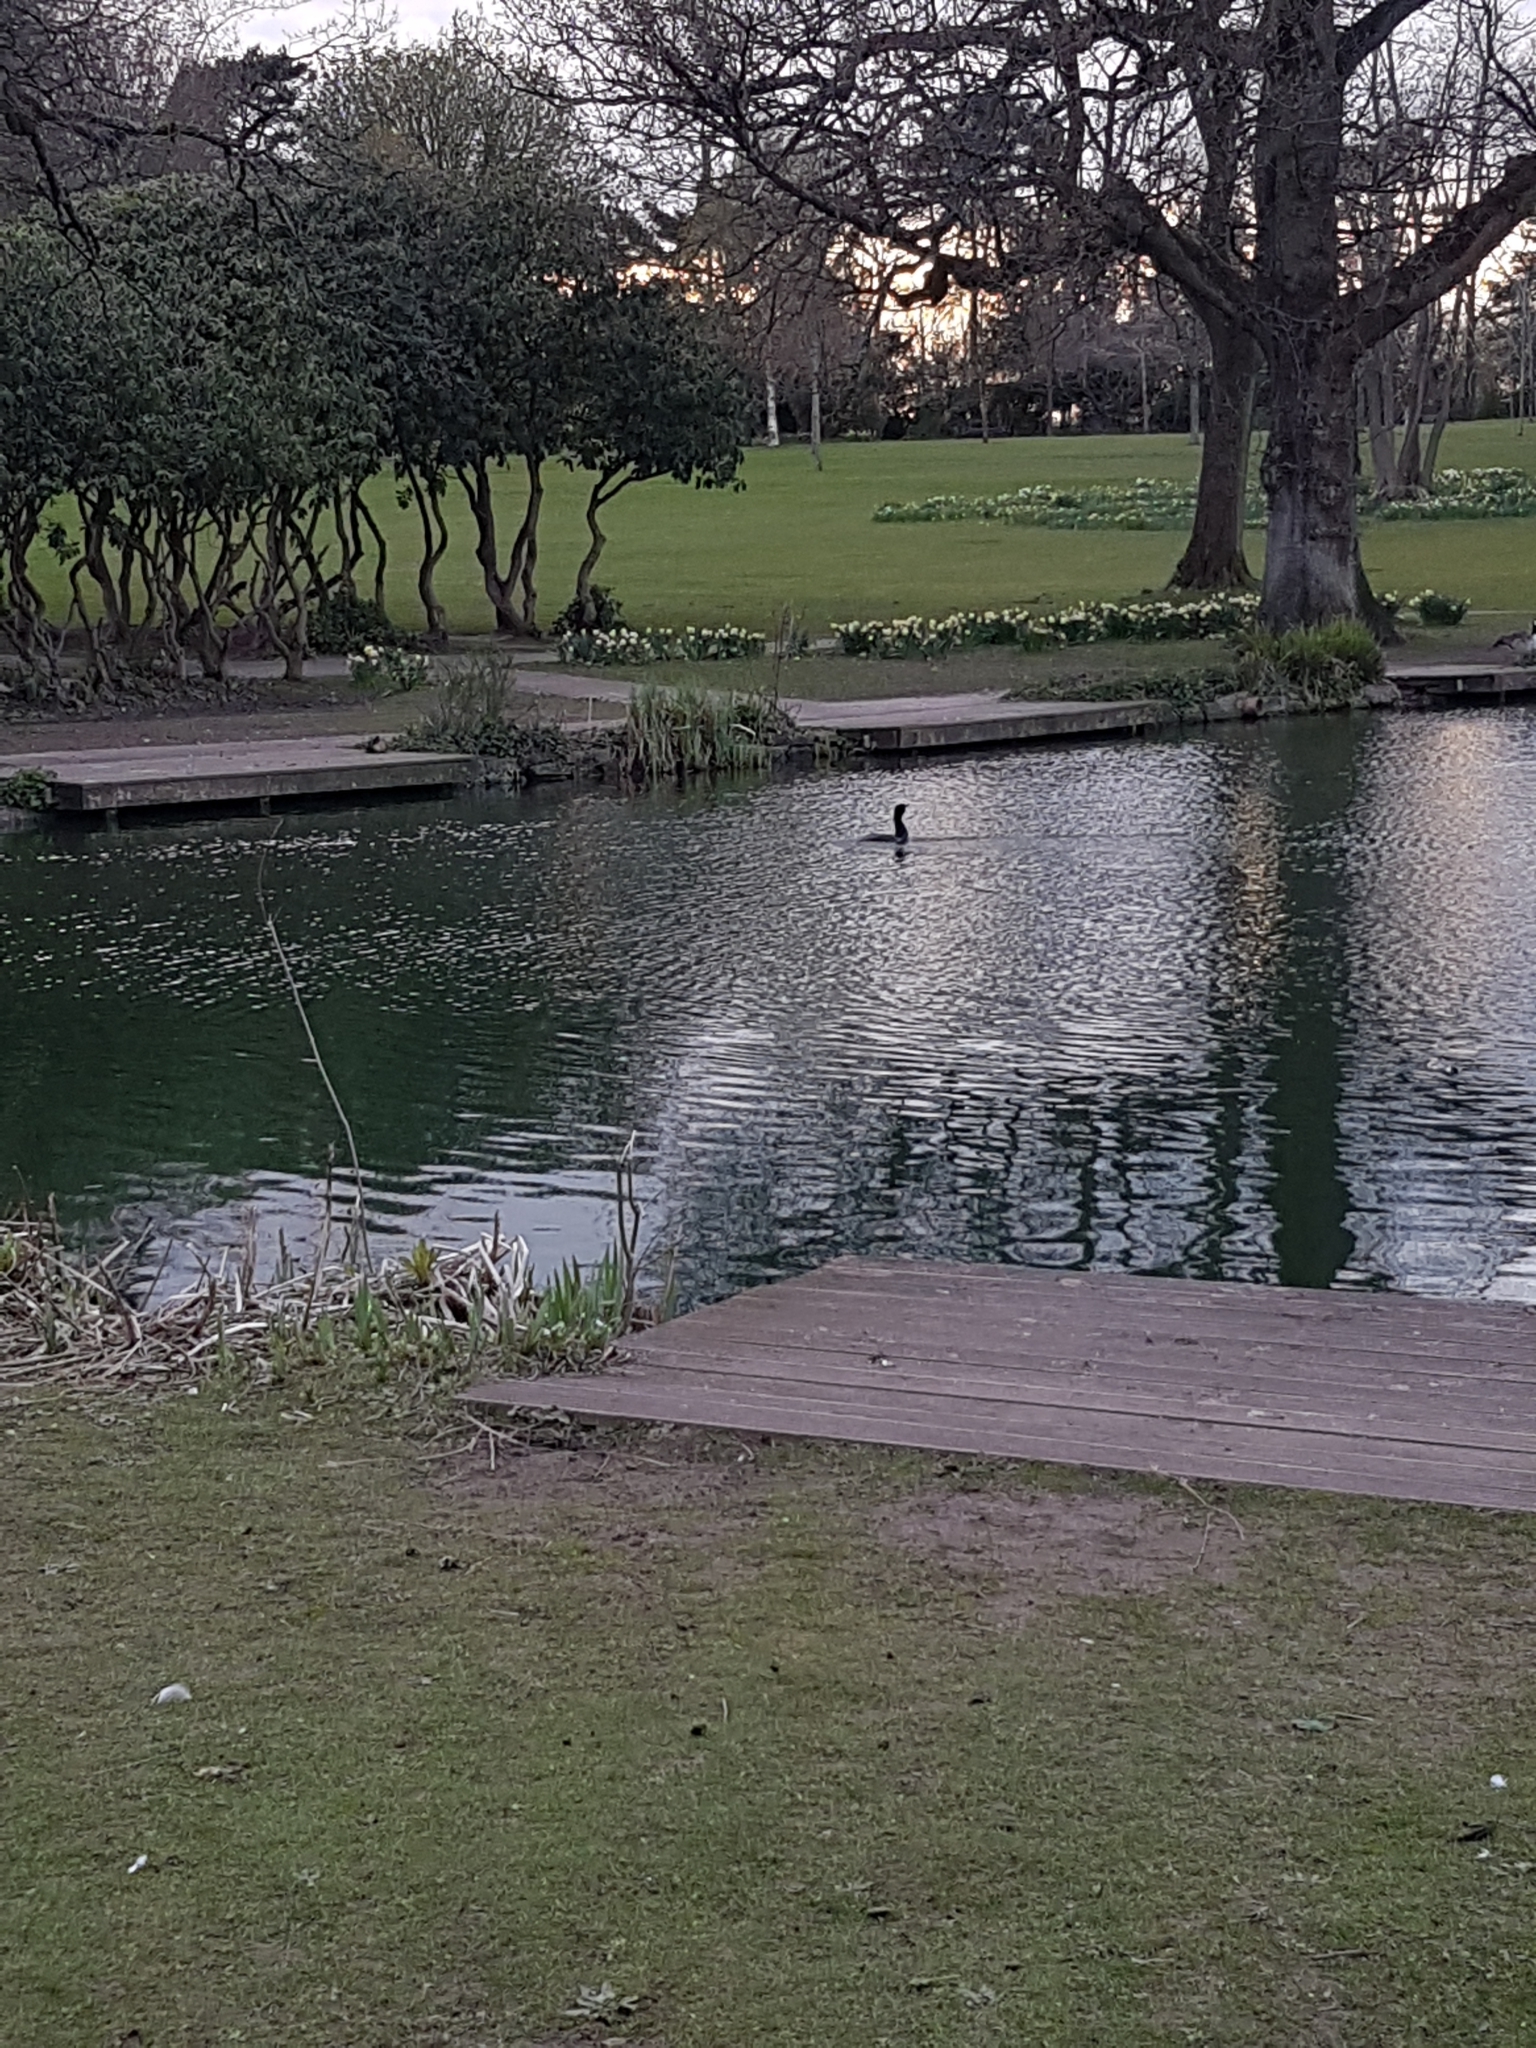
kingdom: Animalia
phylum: Chordata
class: Aves
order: Suliformes
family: Phalacrocoracidae
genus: Phalacrocorax
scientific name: Phalacrocorax carbo
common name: Great cormorant
